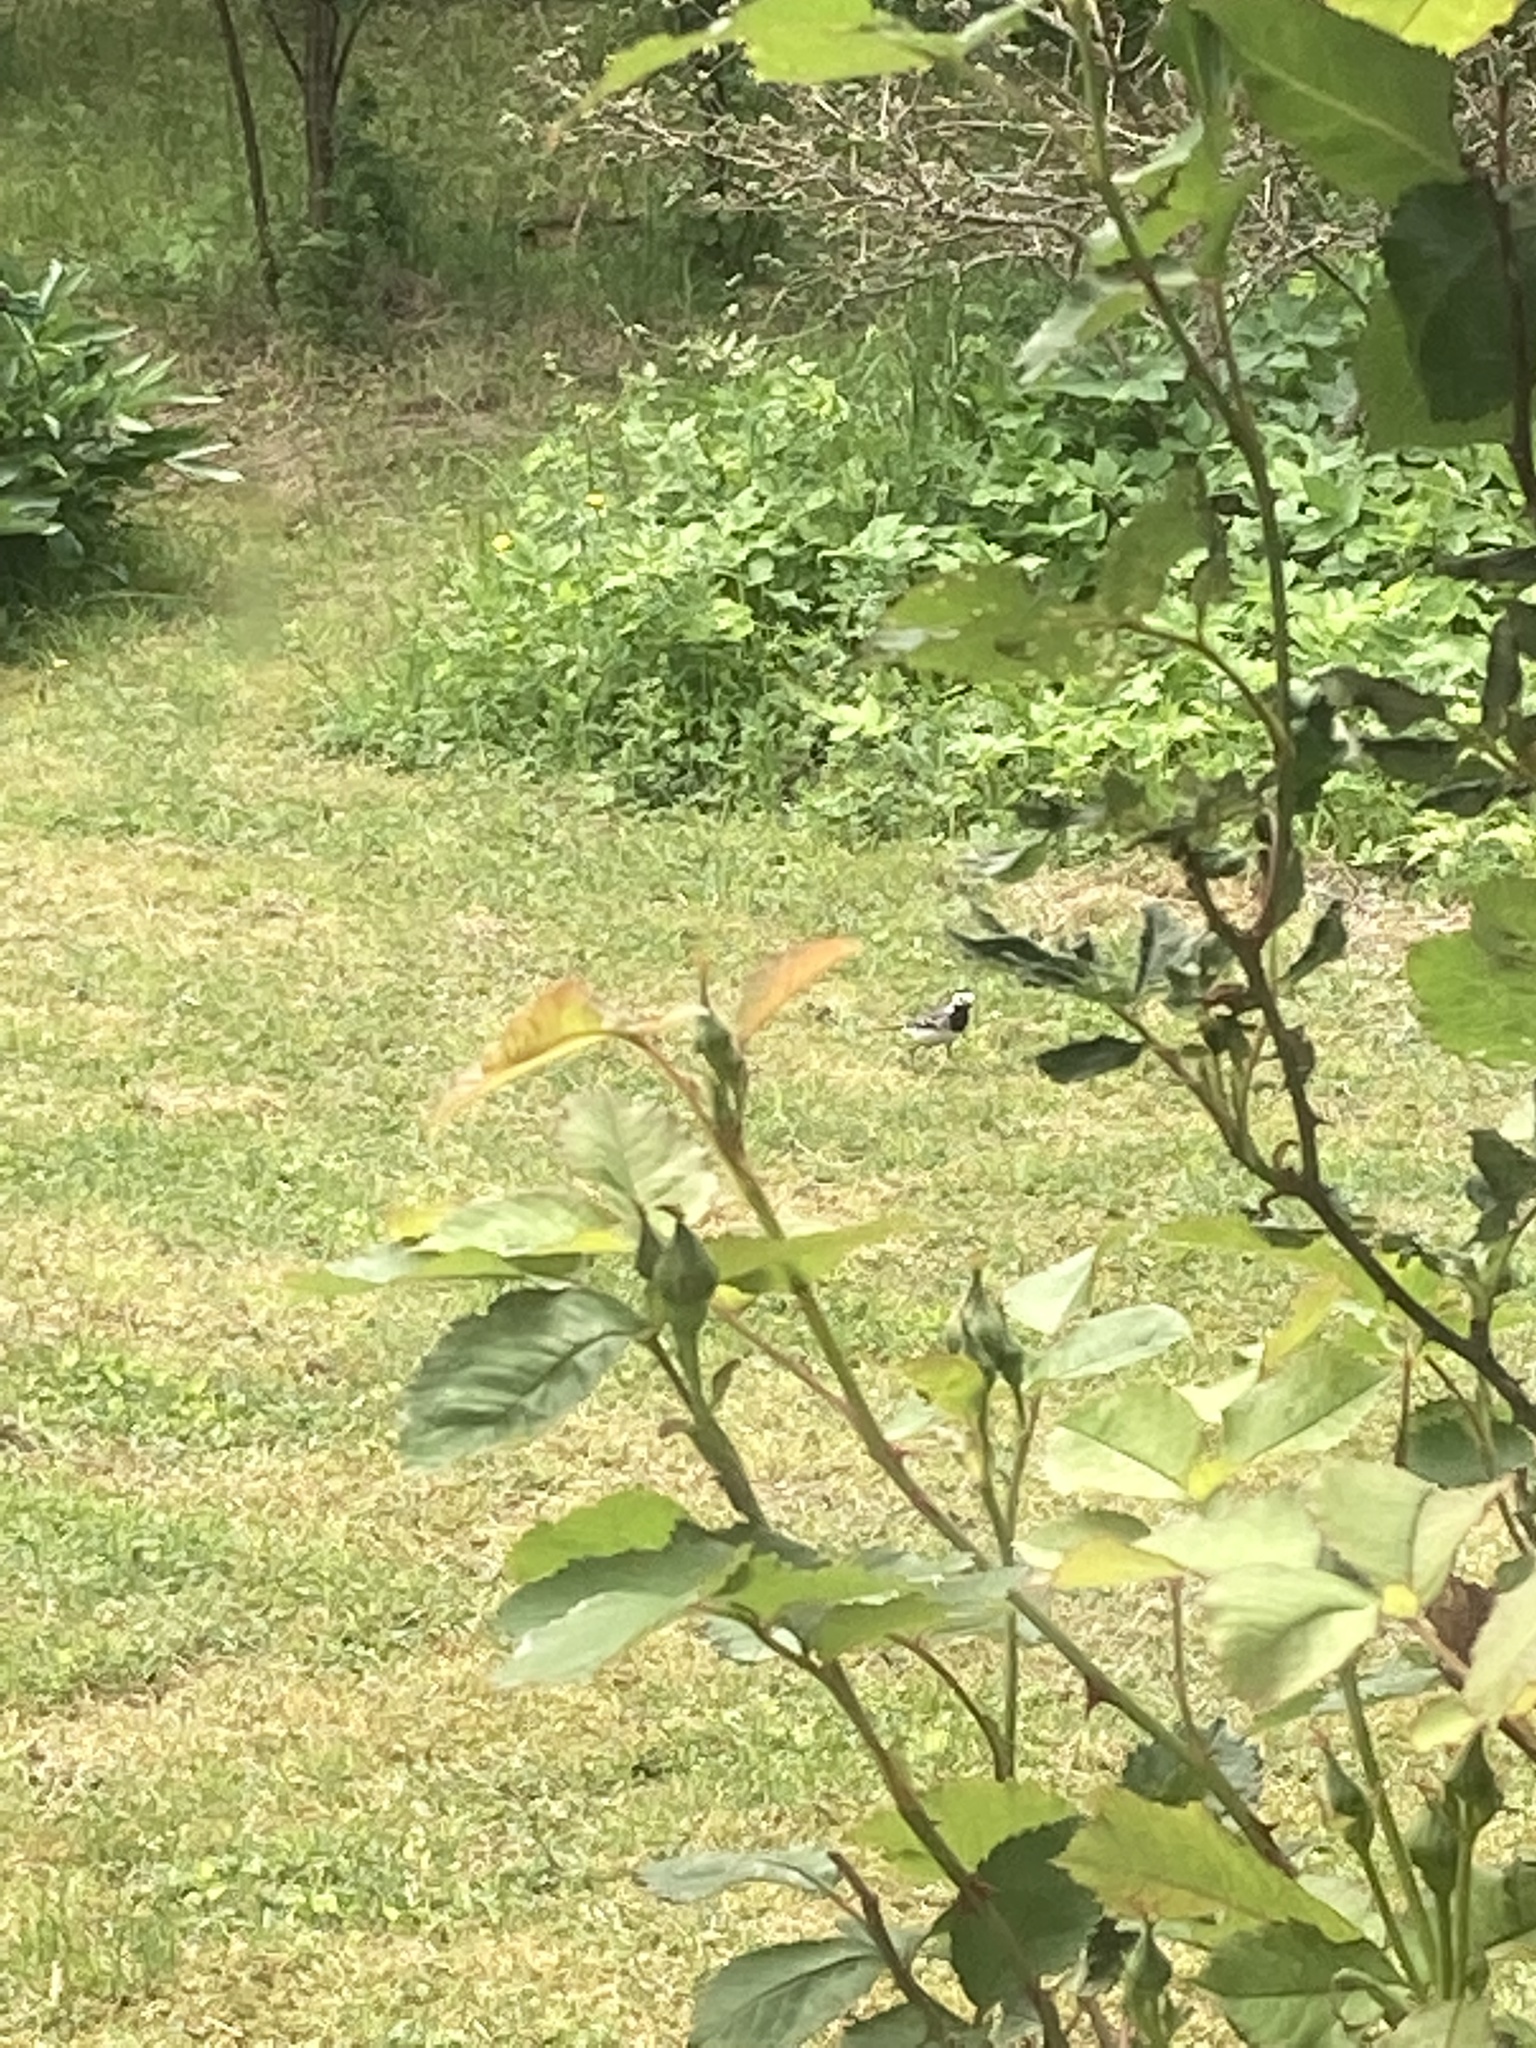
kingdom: Animalia
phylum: Chordata
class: Aves
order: Passeriformes
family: Motacillidae
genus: Motacilla
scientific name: Motacilla alba
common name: White wagtail
